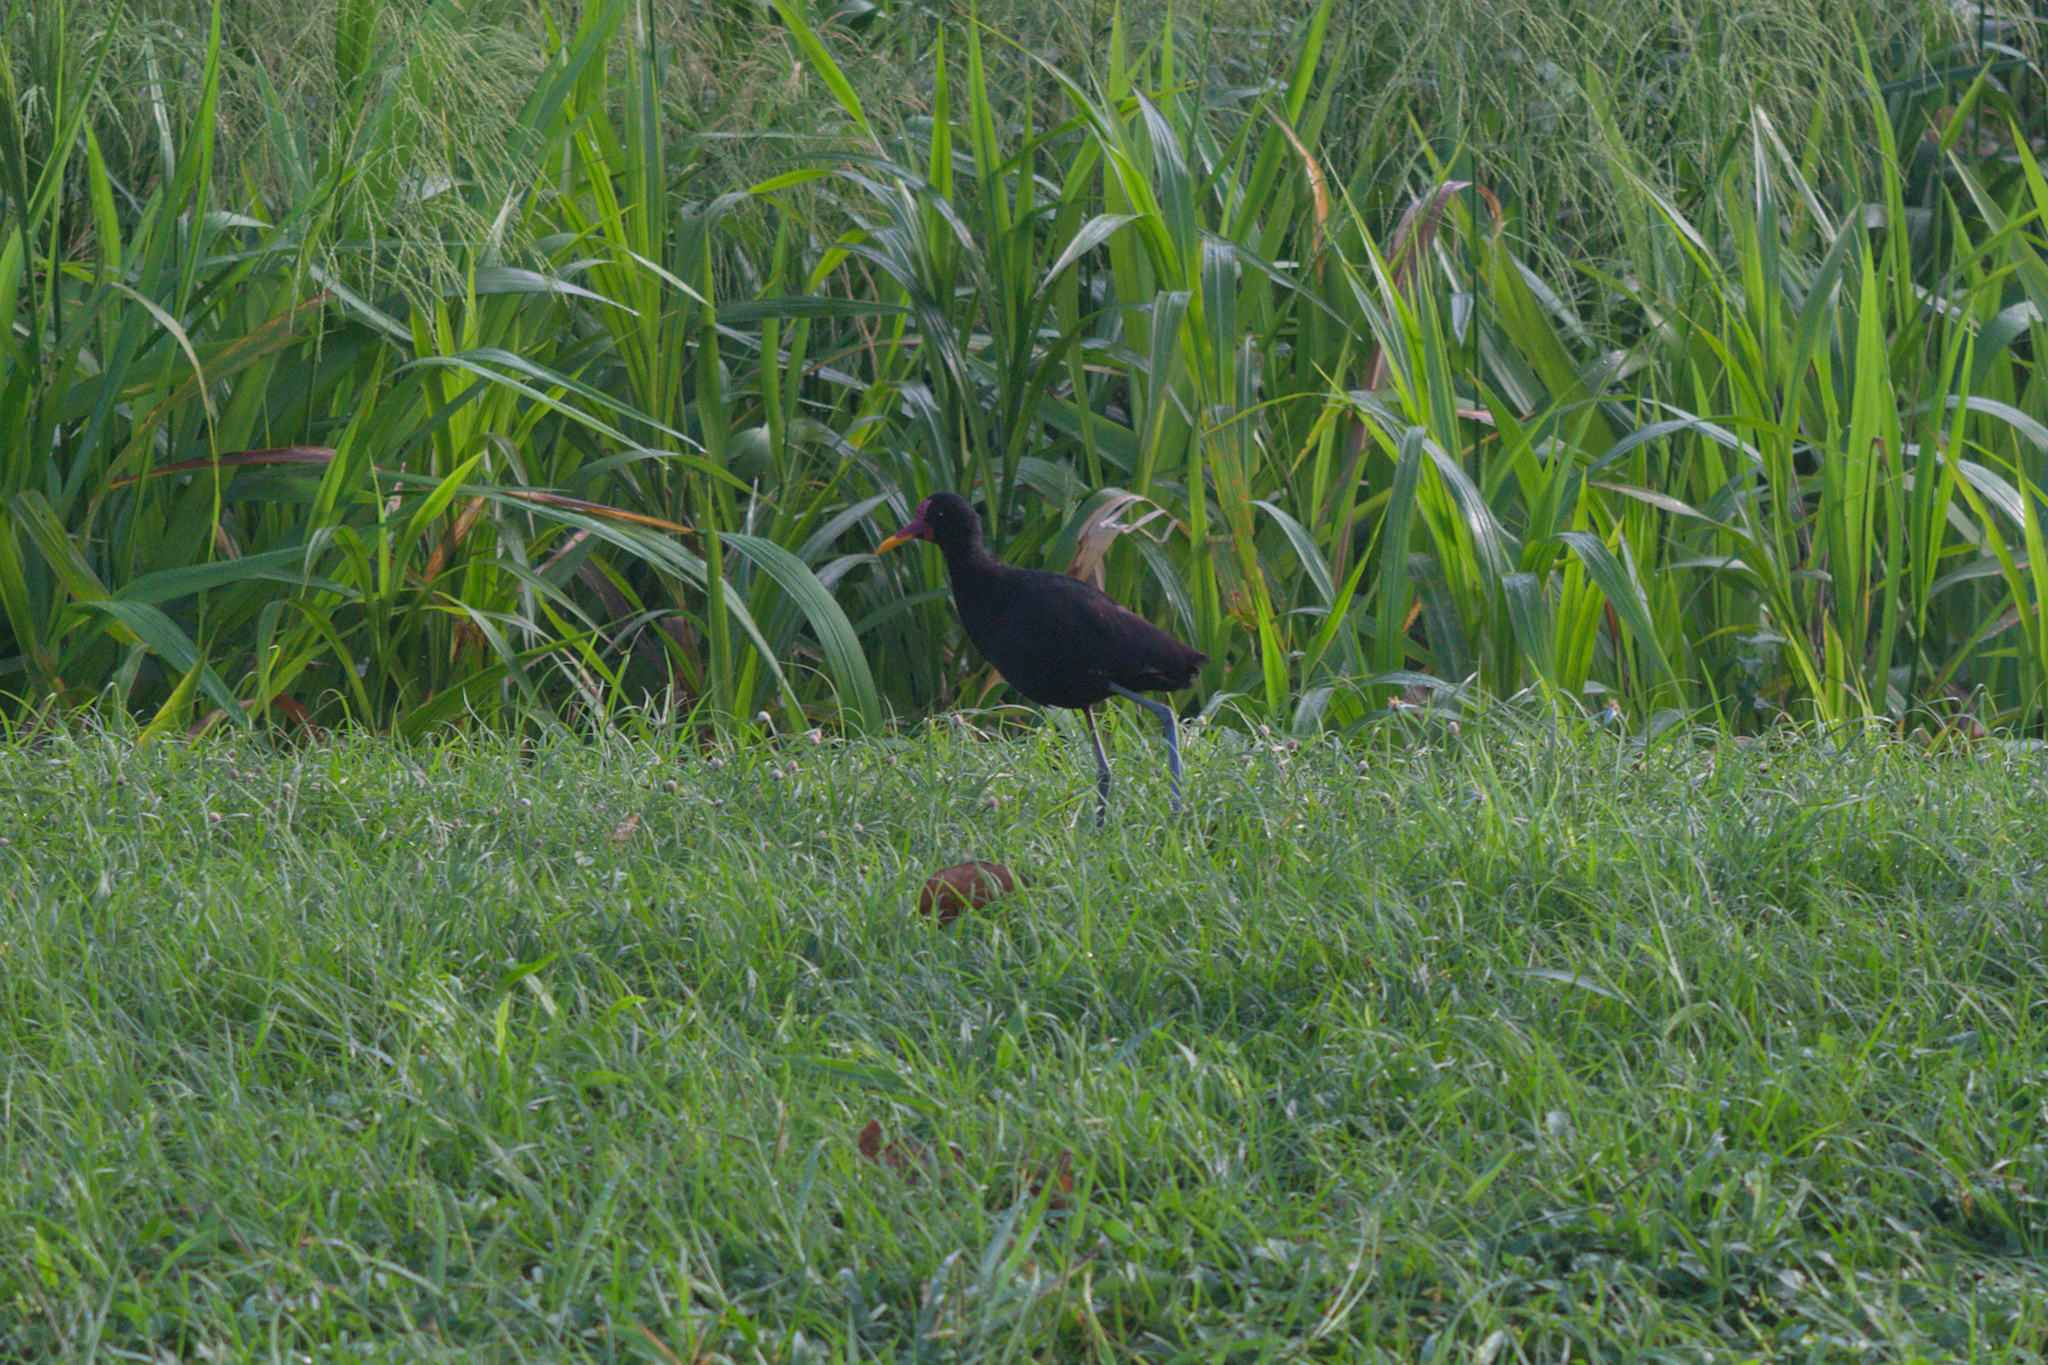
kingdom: Animalia
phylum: Chordata
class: Aves
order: Charadriiformes
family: Jacanidae
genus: Jacana
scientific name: Jacana jacana
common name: Wattled jacana
